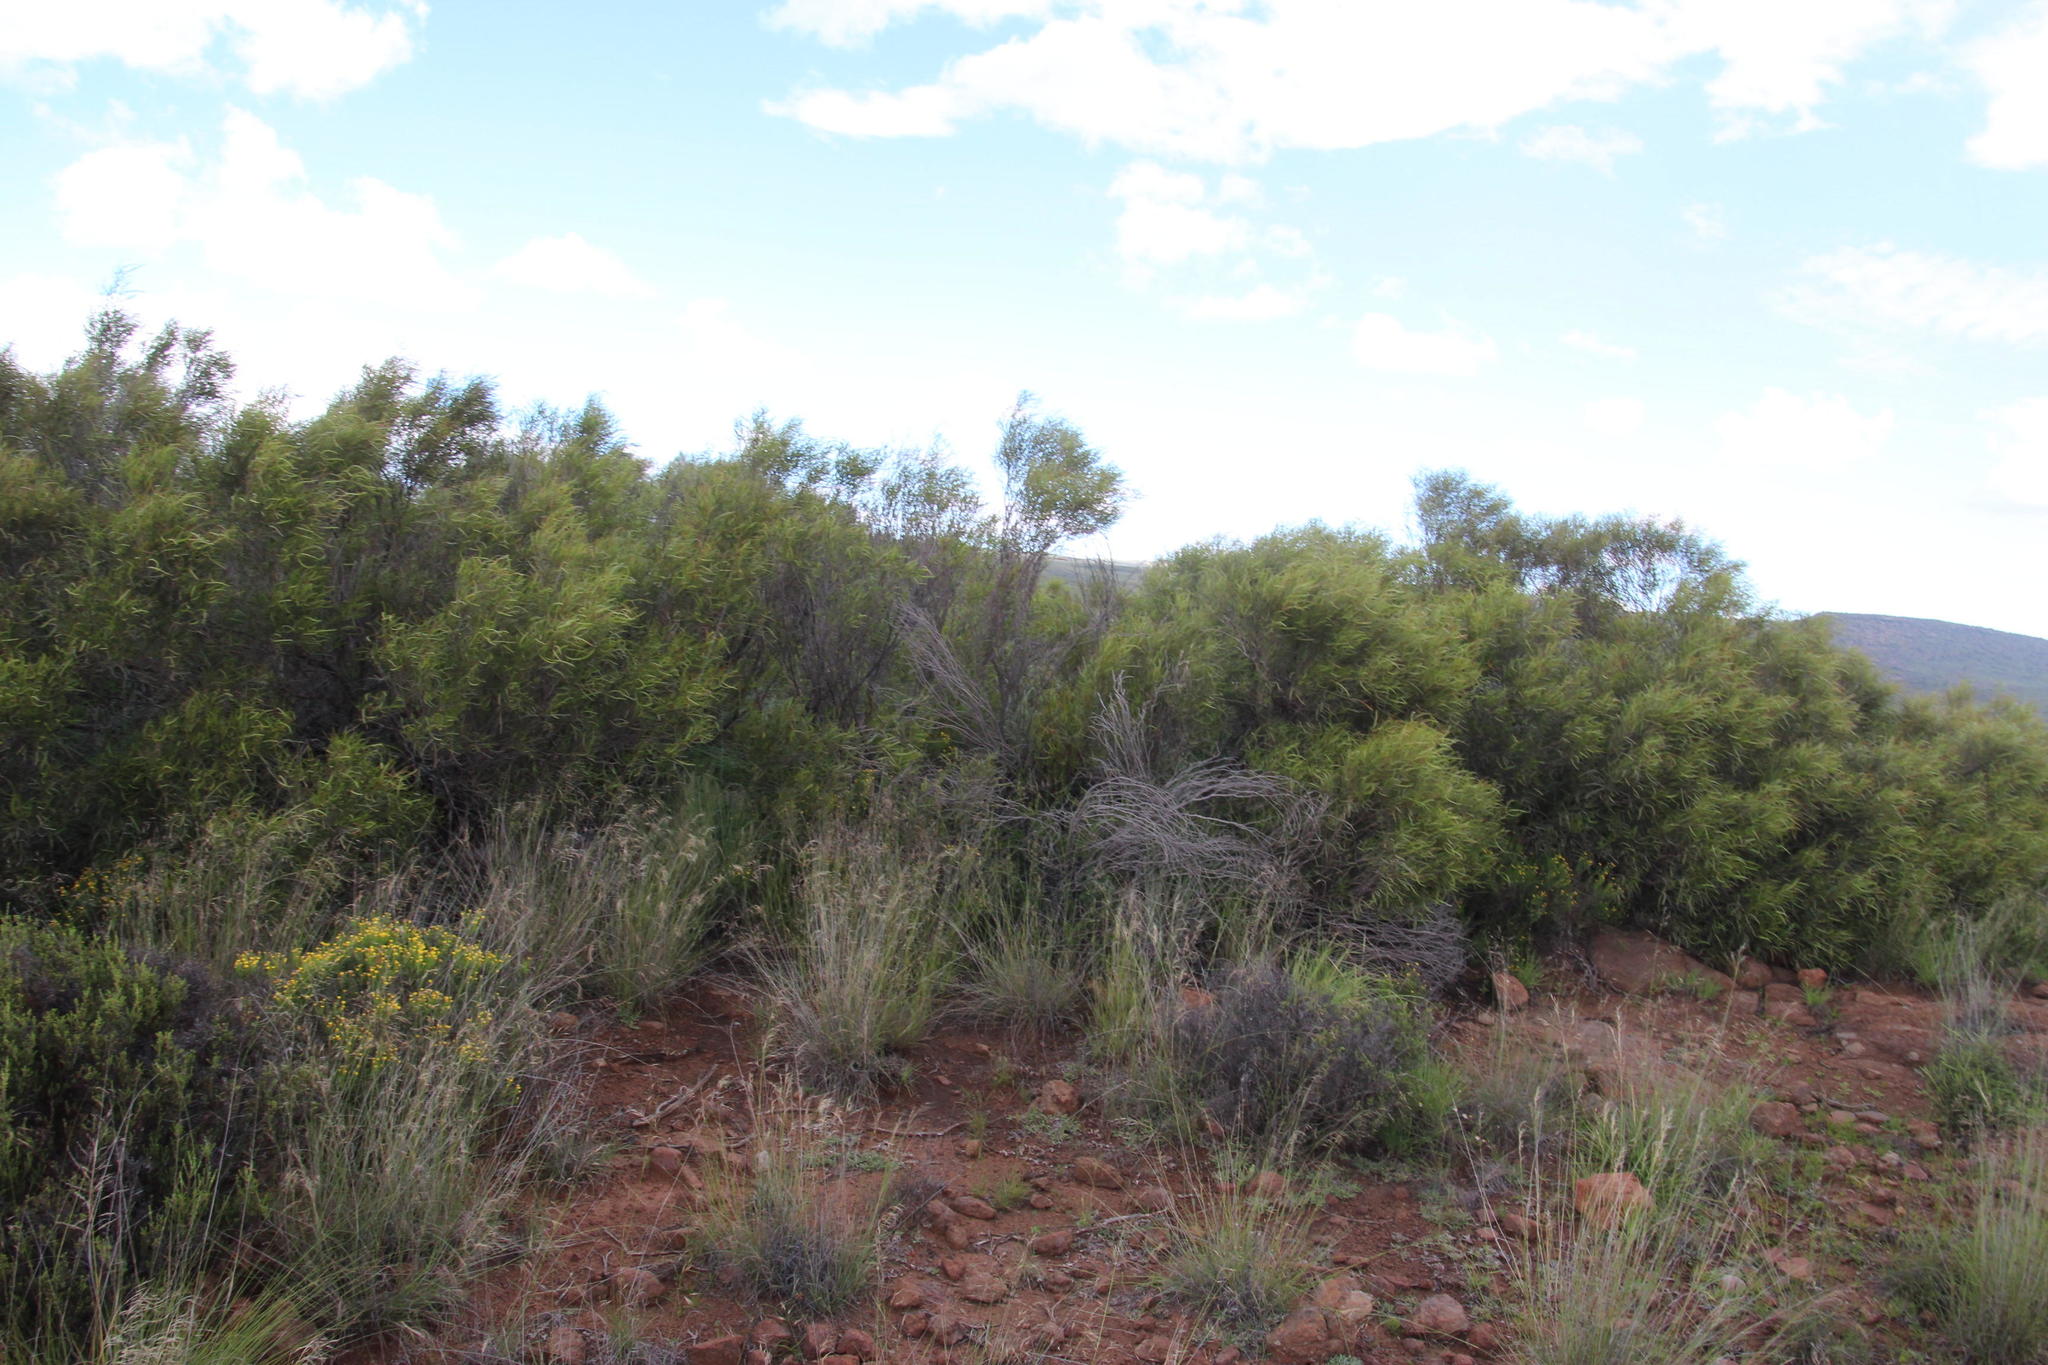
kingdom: Plantae
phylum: Tracheophyta
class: Magnoliopsida
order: Sapindales
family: Anacardiaceae
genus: Searsia
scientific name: Searsia erosa
